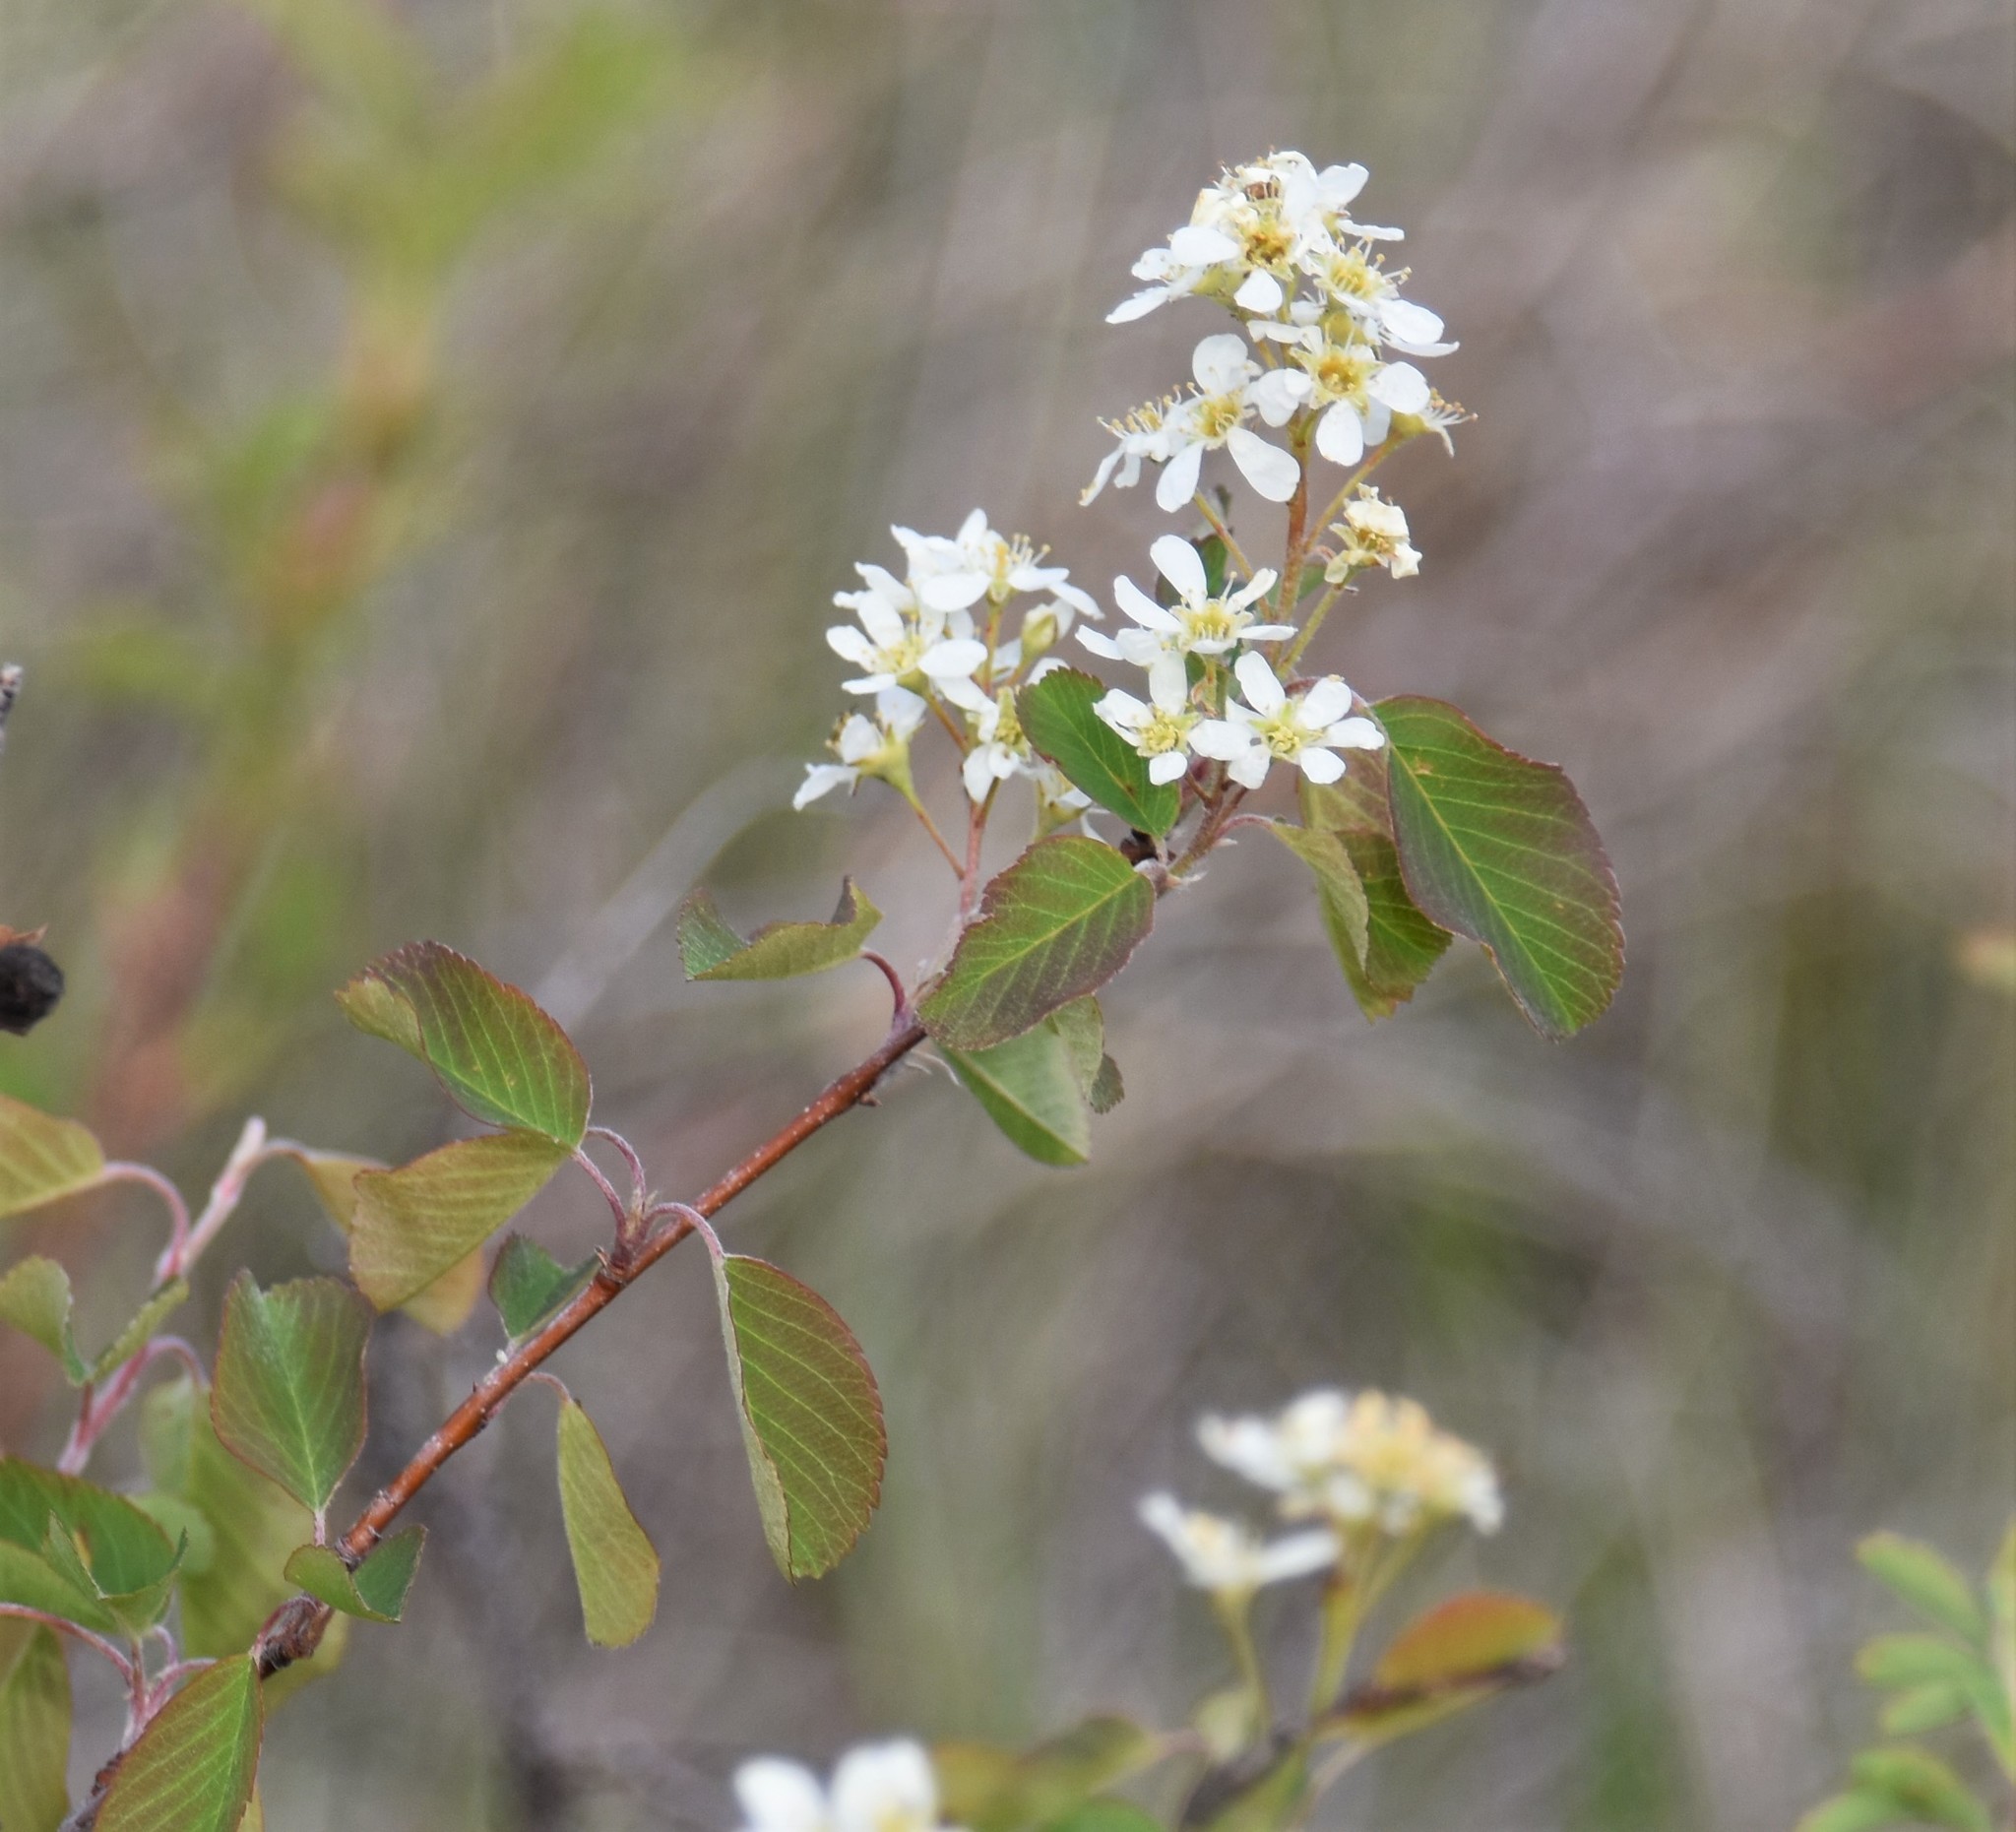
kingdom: Plantae
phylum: Tracheophyta
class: Magnoliopsida
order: Rosales
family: Rosaceae
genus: Amelanchier
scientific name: Amelanchier alnifolia
